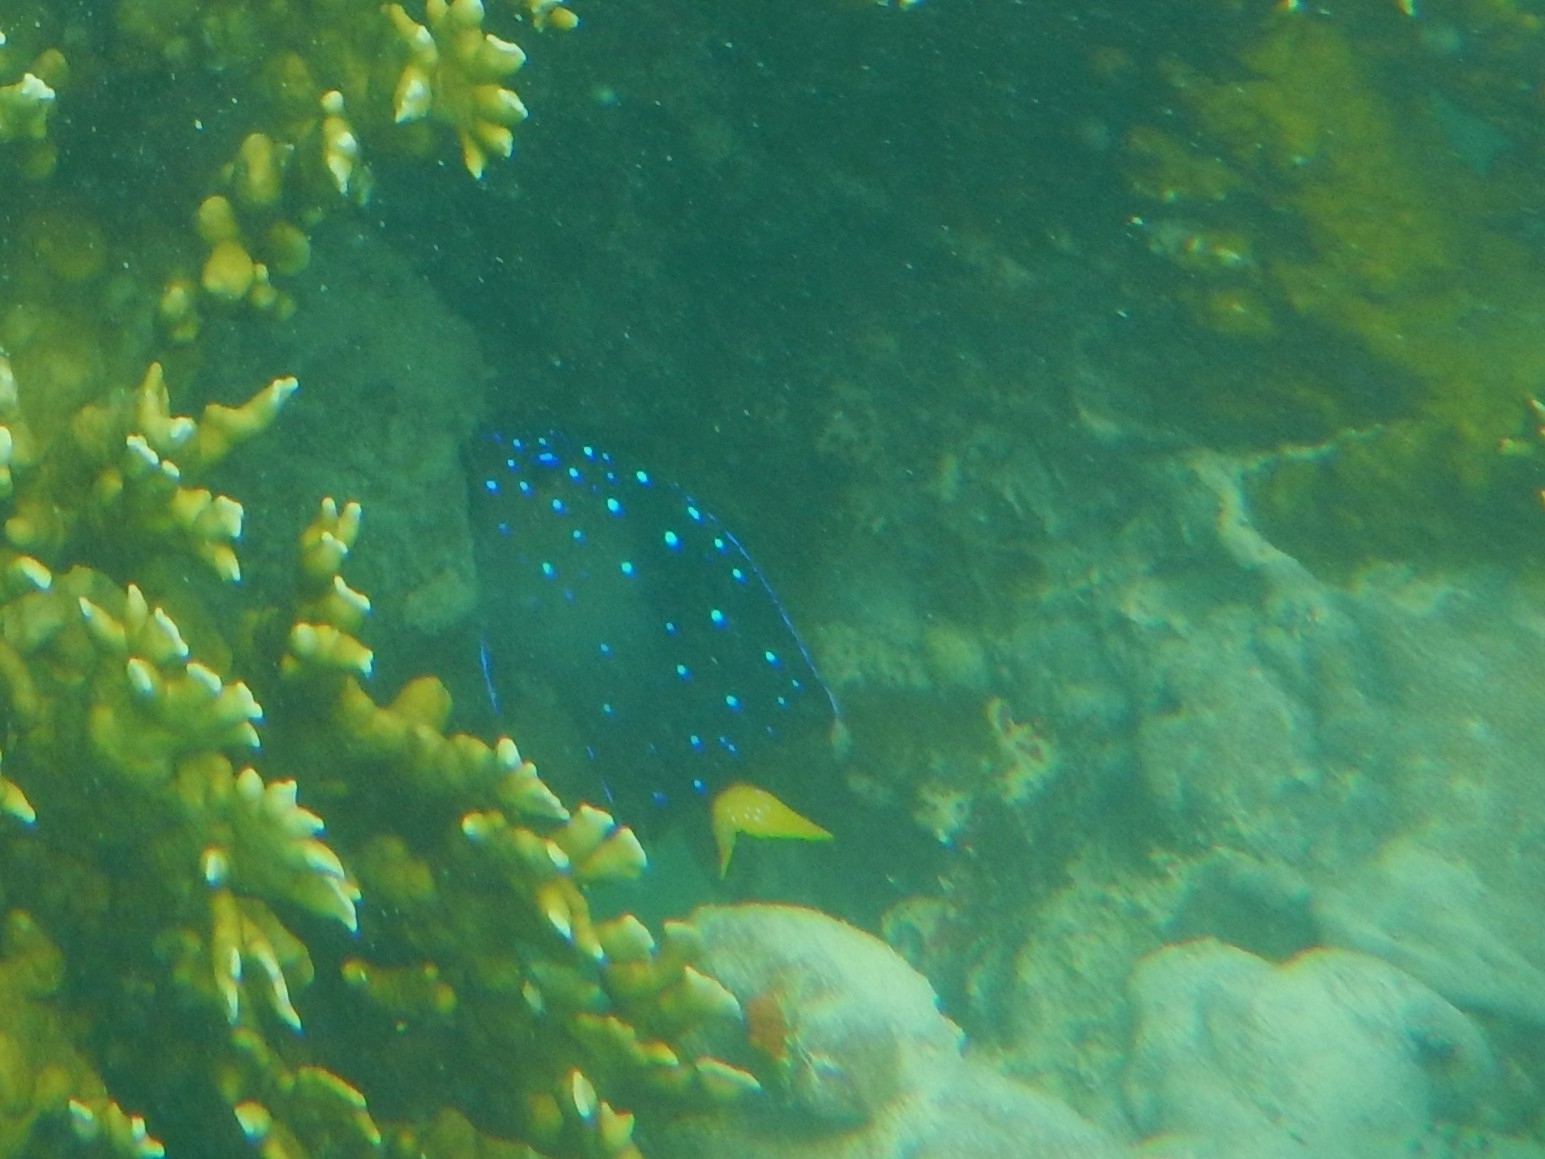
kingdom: Animalia
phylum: Chordata
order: Perciformes
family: Pomacentridae
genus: Microspathodon
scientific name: Microspathodon chrysurus
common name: Yellowtail damselfish
